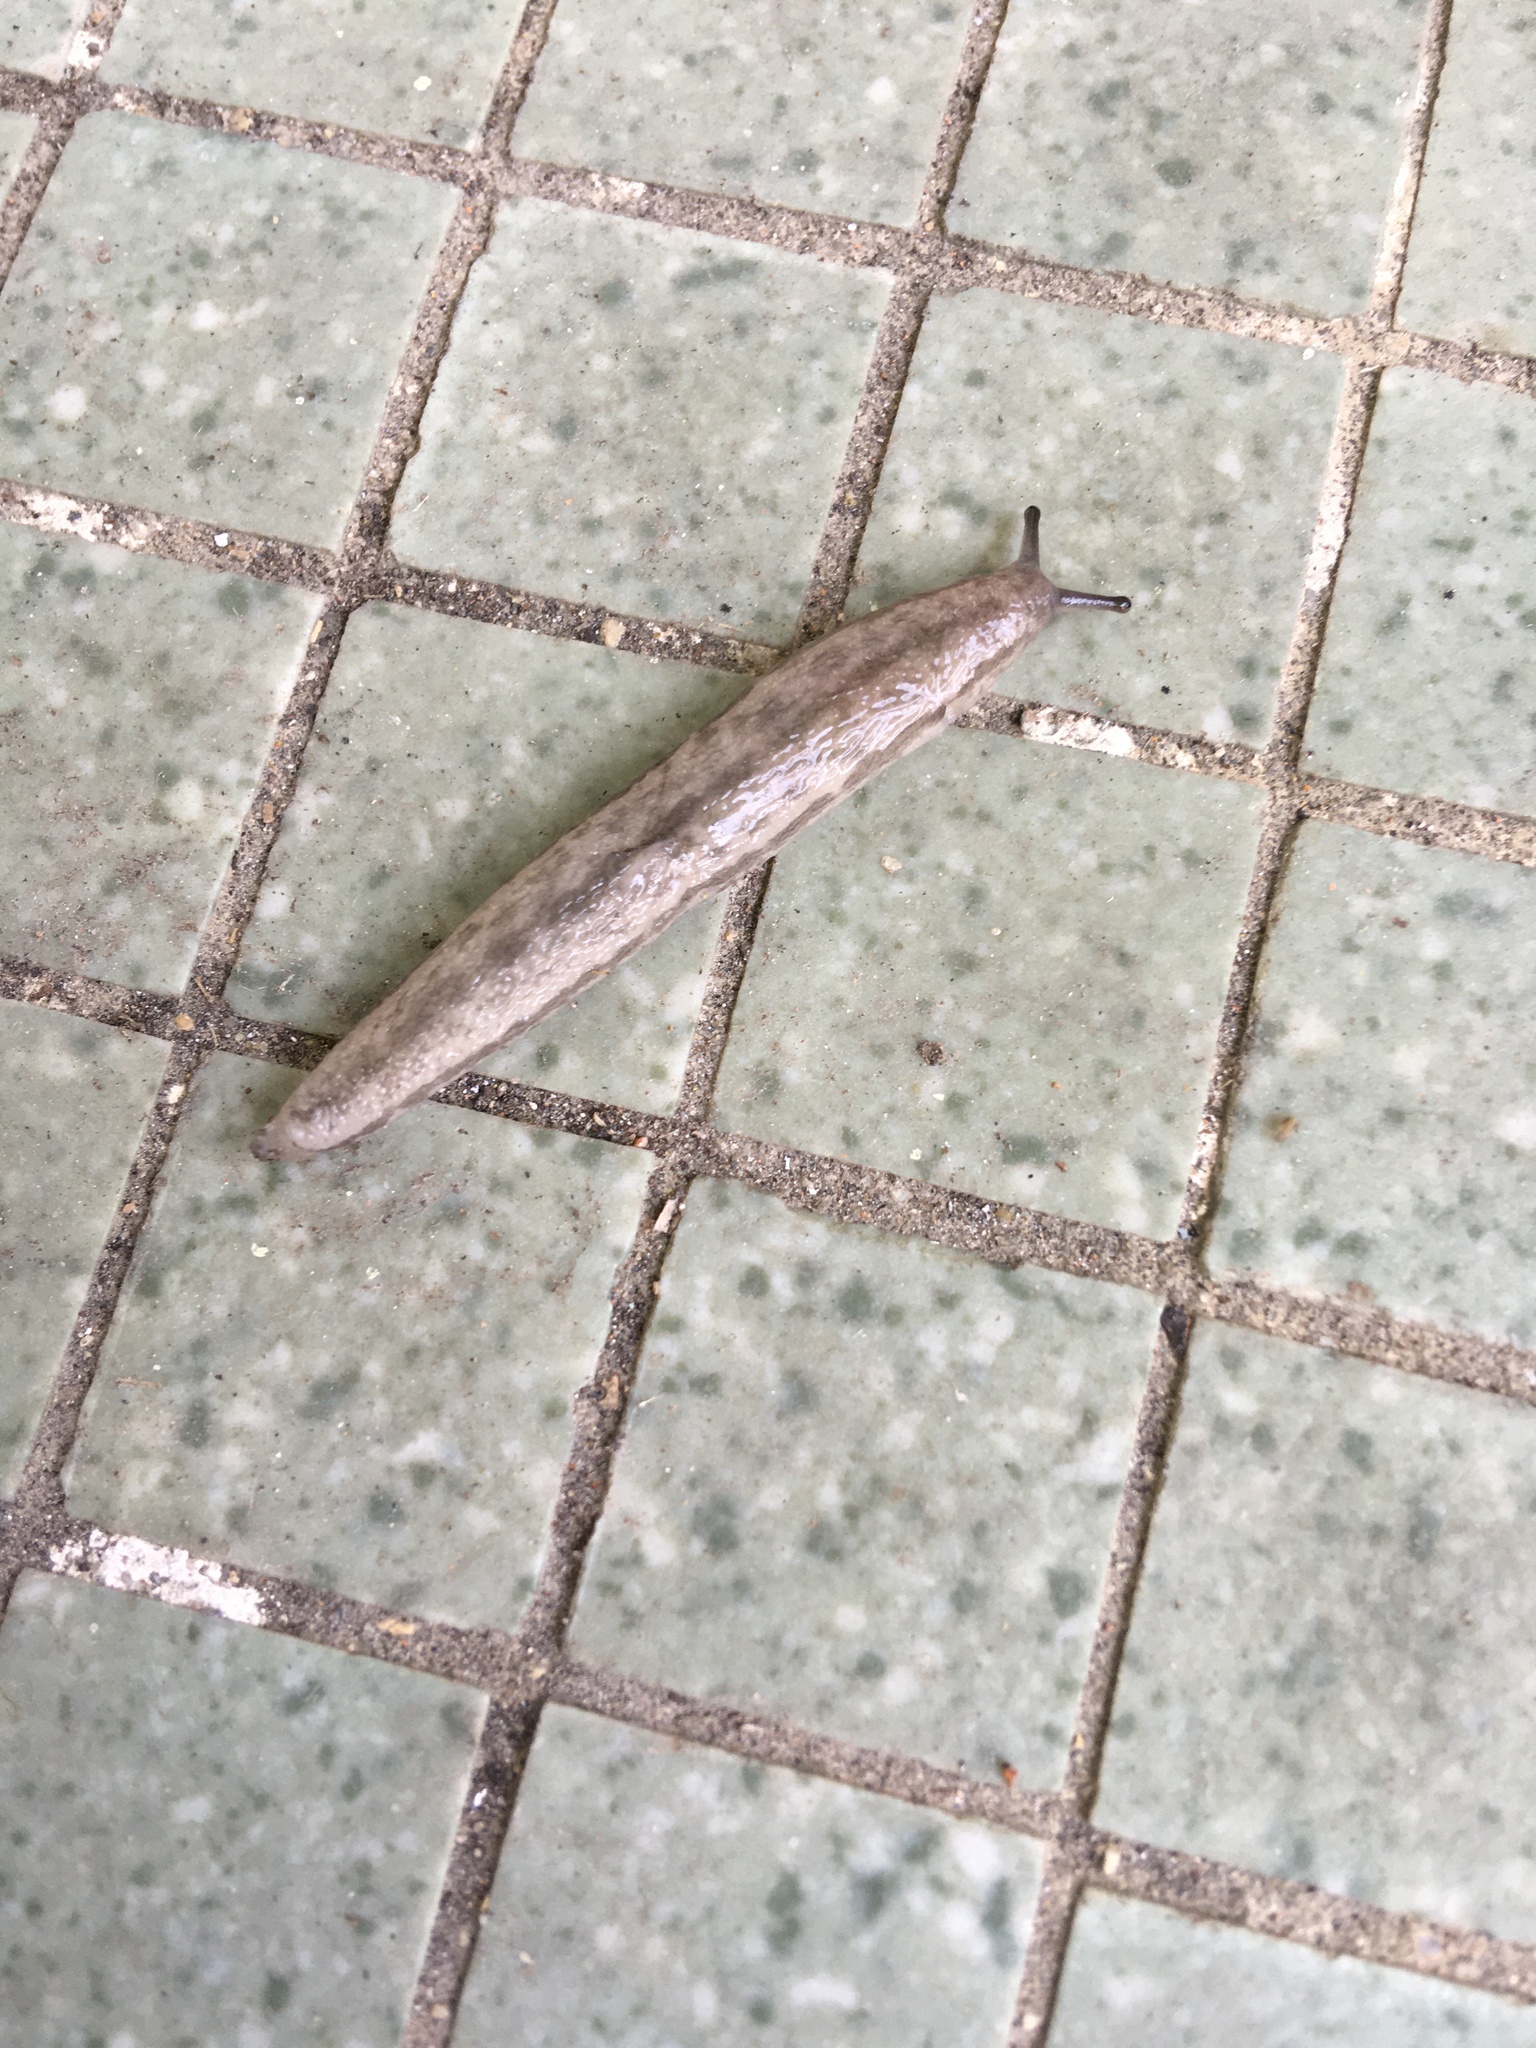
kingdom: Animalia
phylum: Mollusca
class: Gastropoda
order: Stylommatophora
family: Philomycidae
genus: Meghimatium
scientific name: Meghimatium bilineatum
